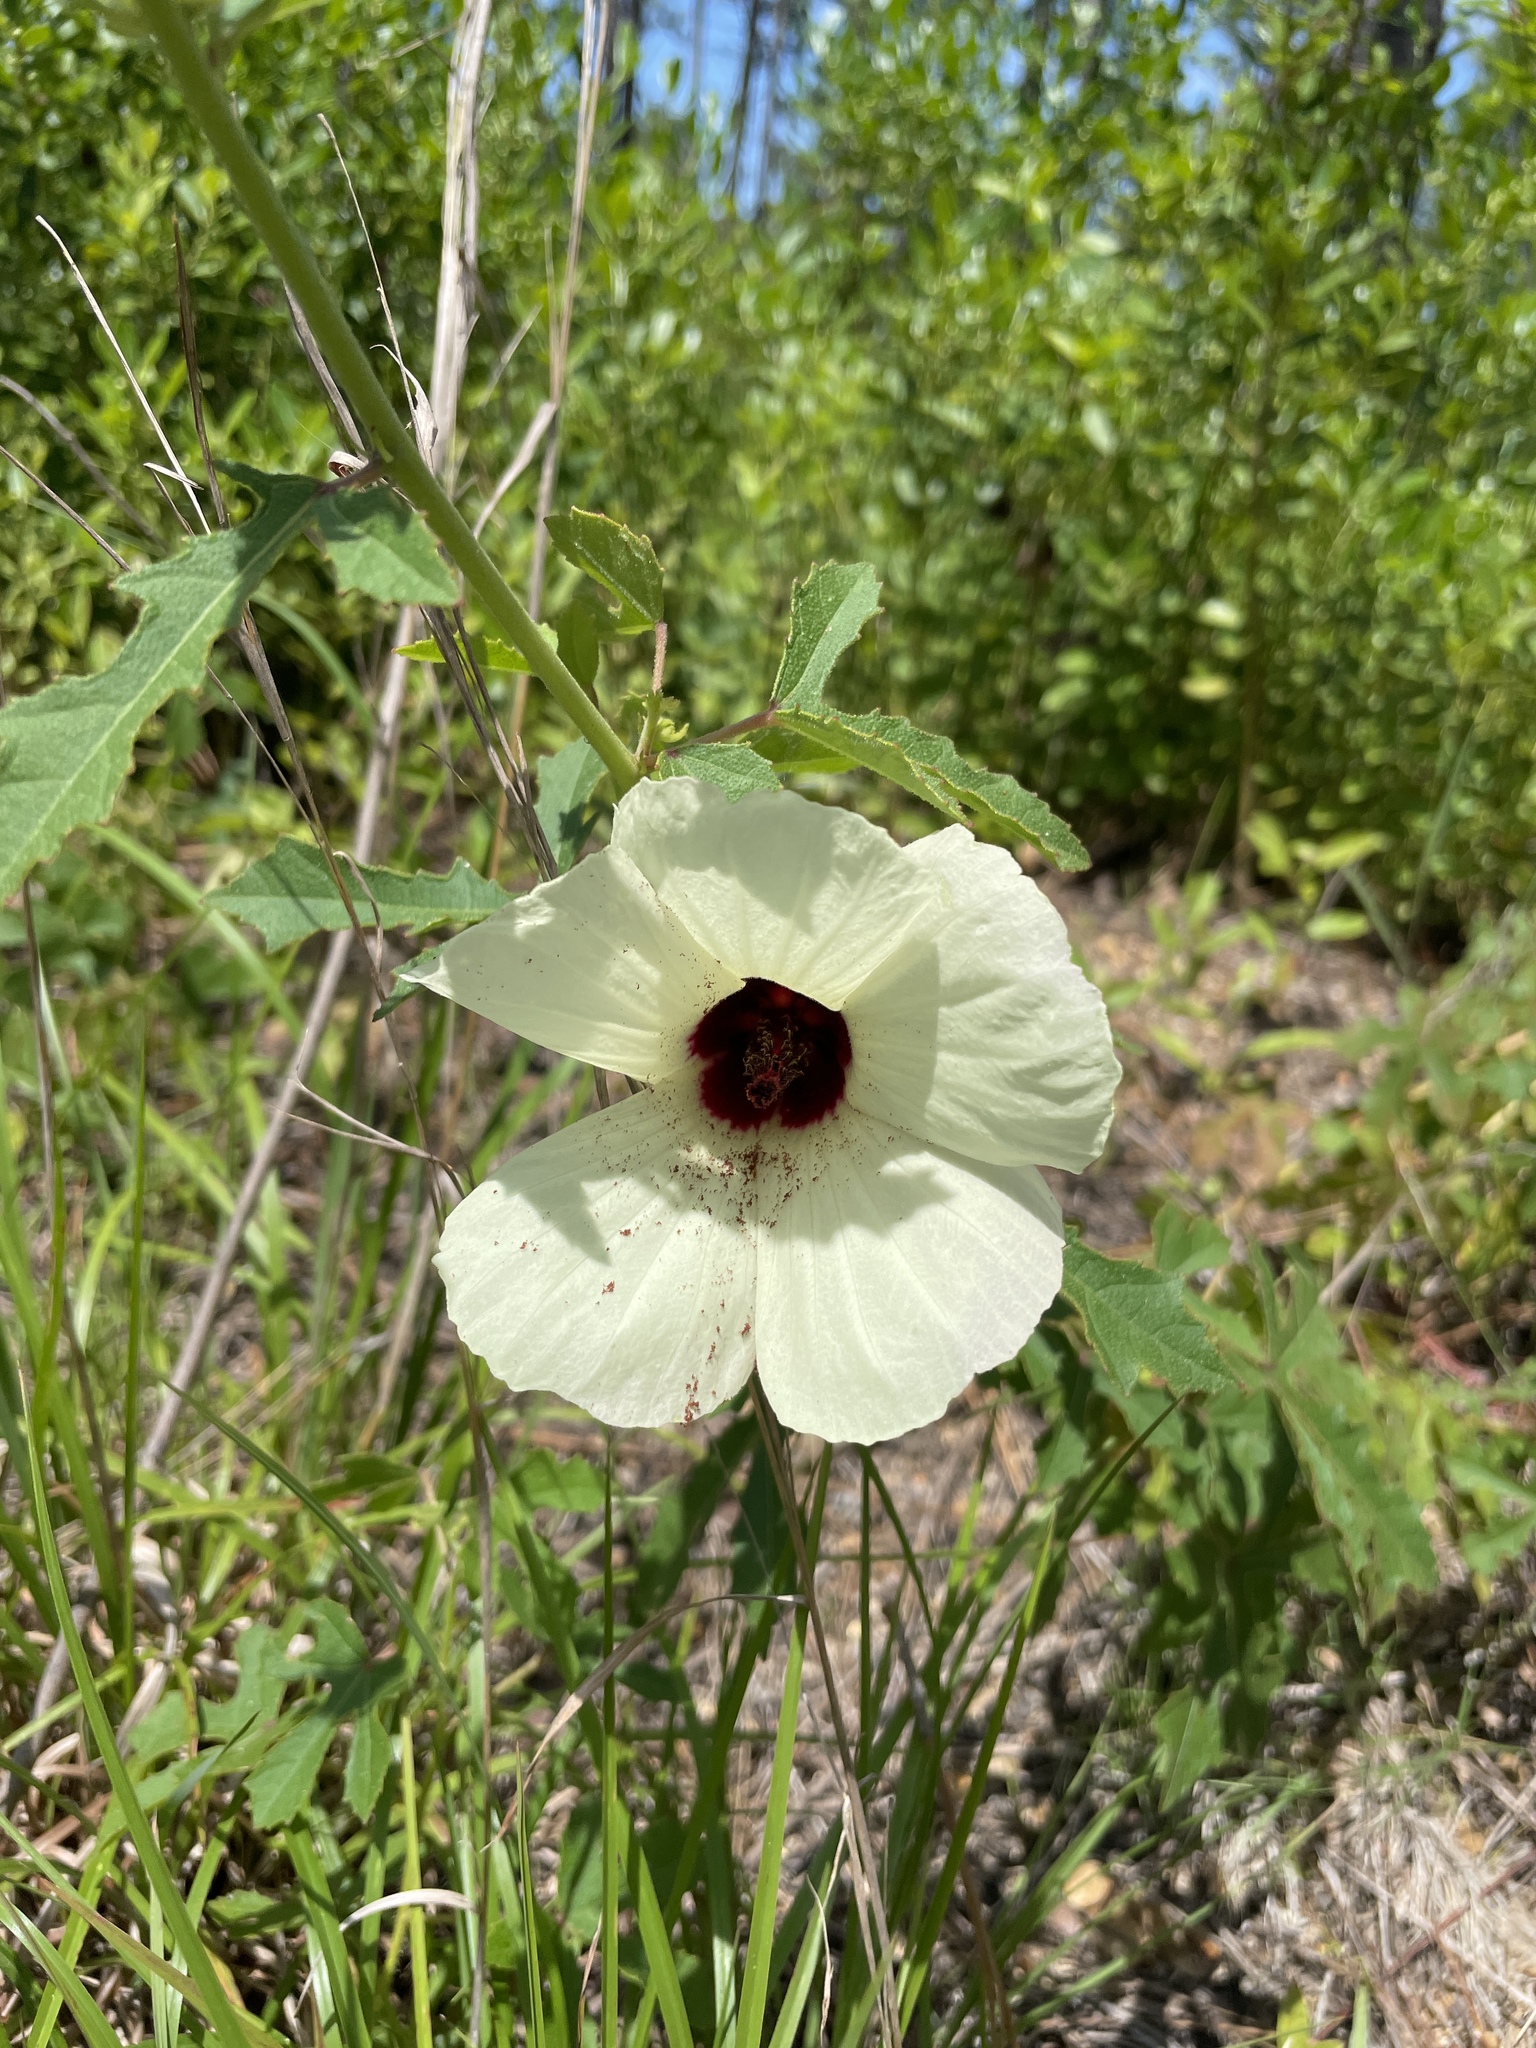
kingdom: Plantae
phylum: Tracheophyta
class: Magnoliopsida
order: Malvales
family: Malvaceae
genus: Hibiscus
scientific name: Hibiscus aculeatus
